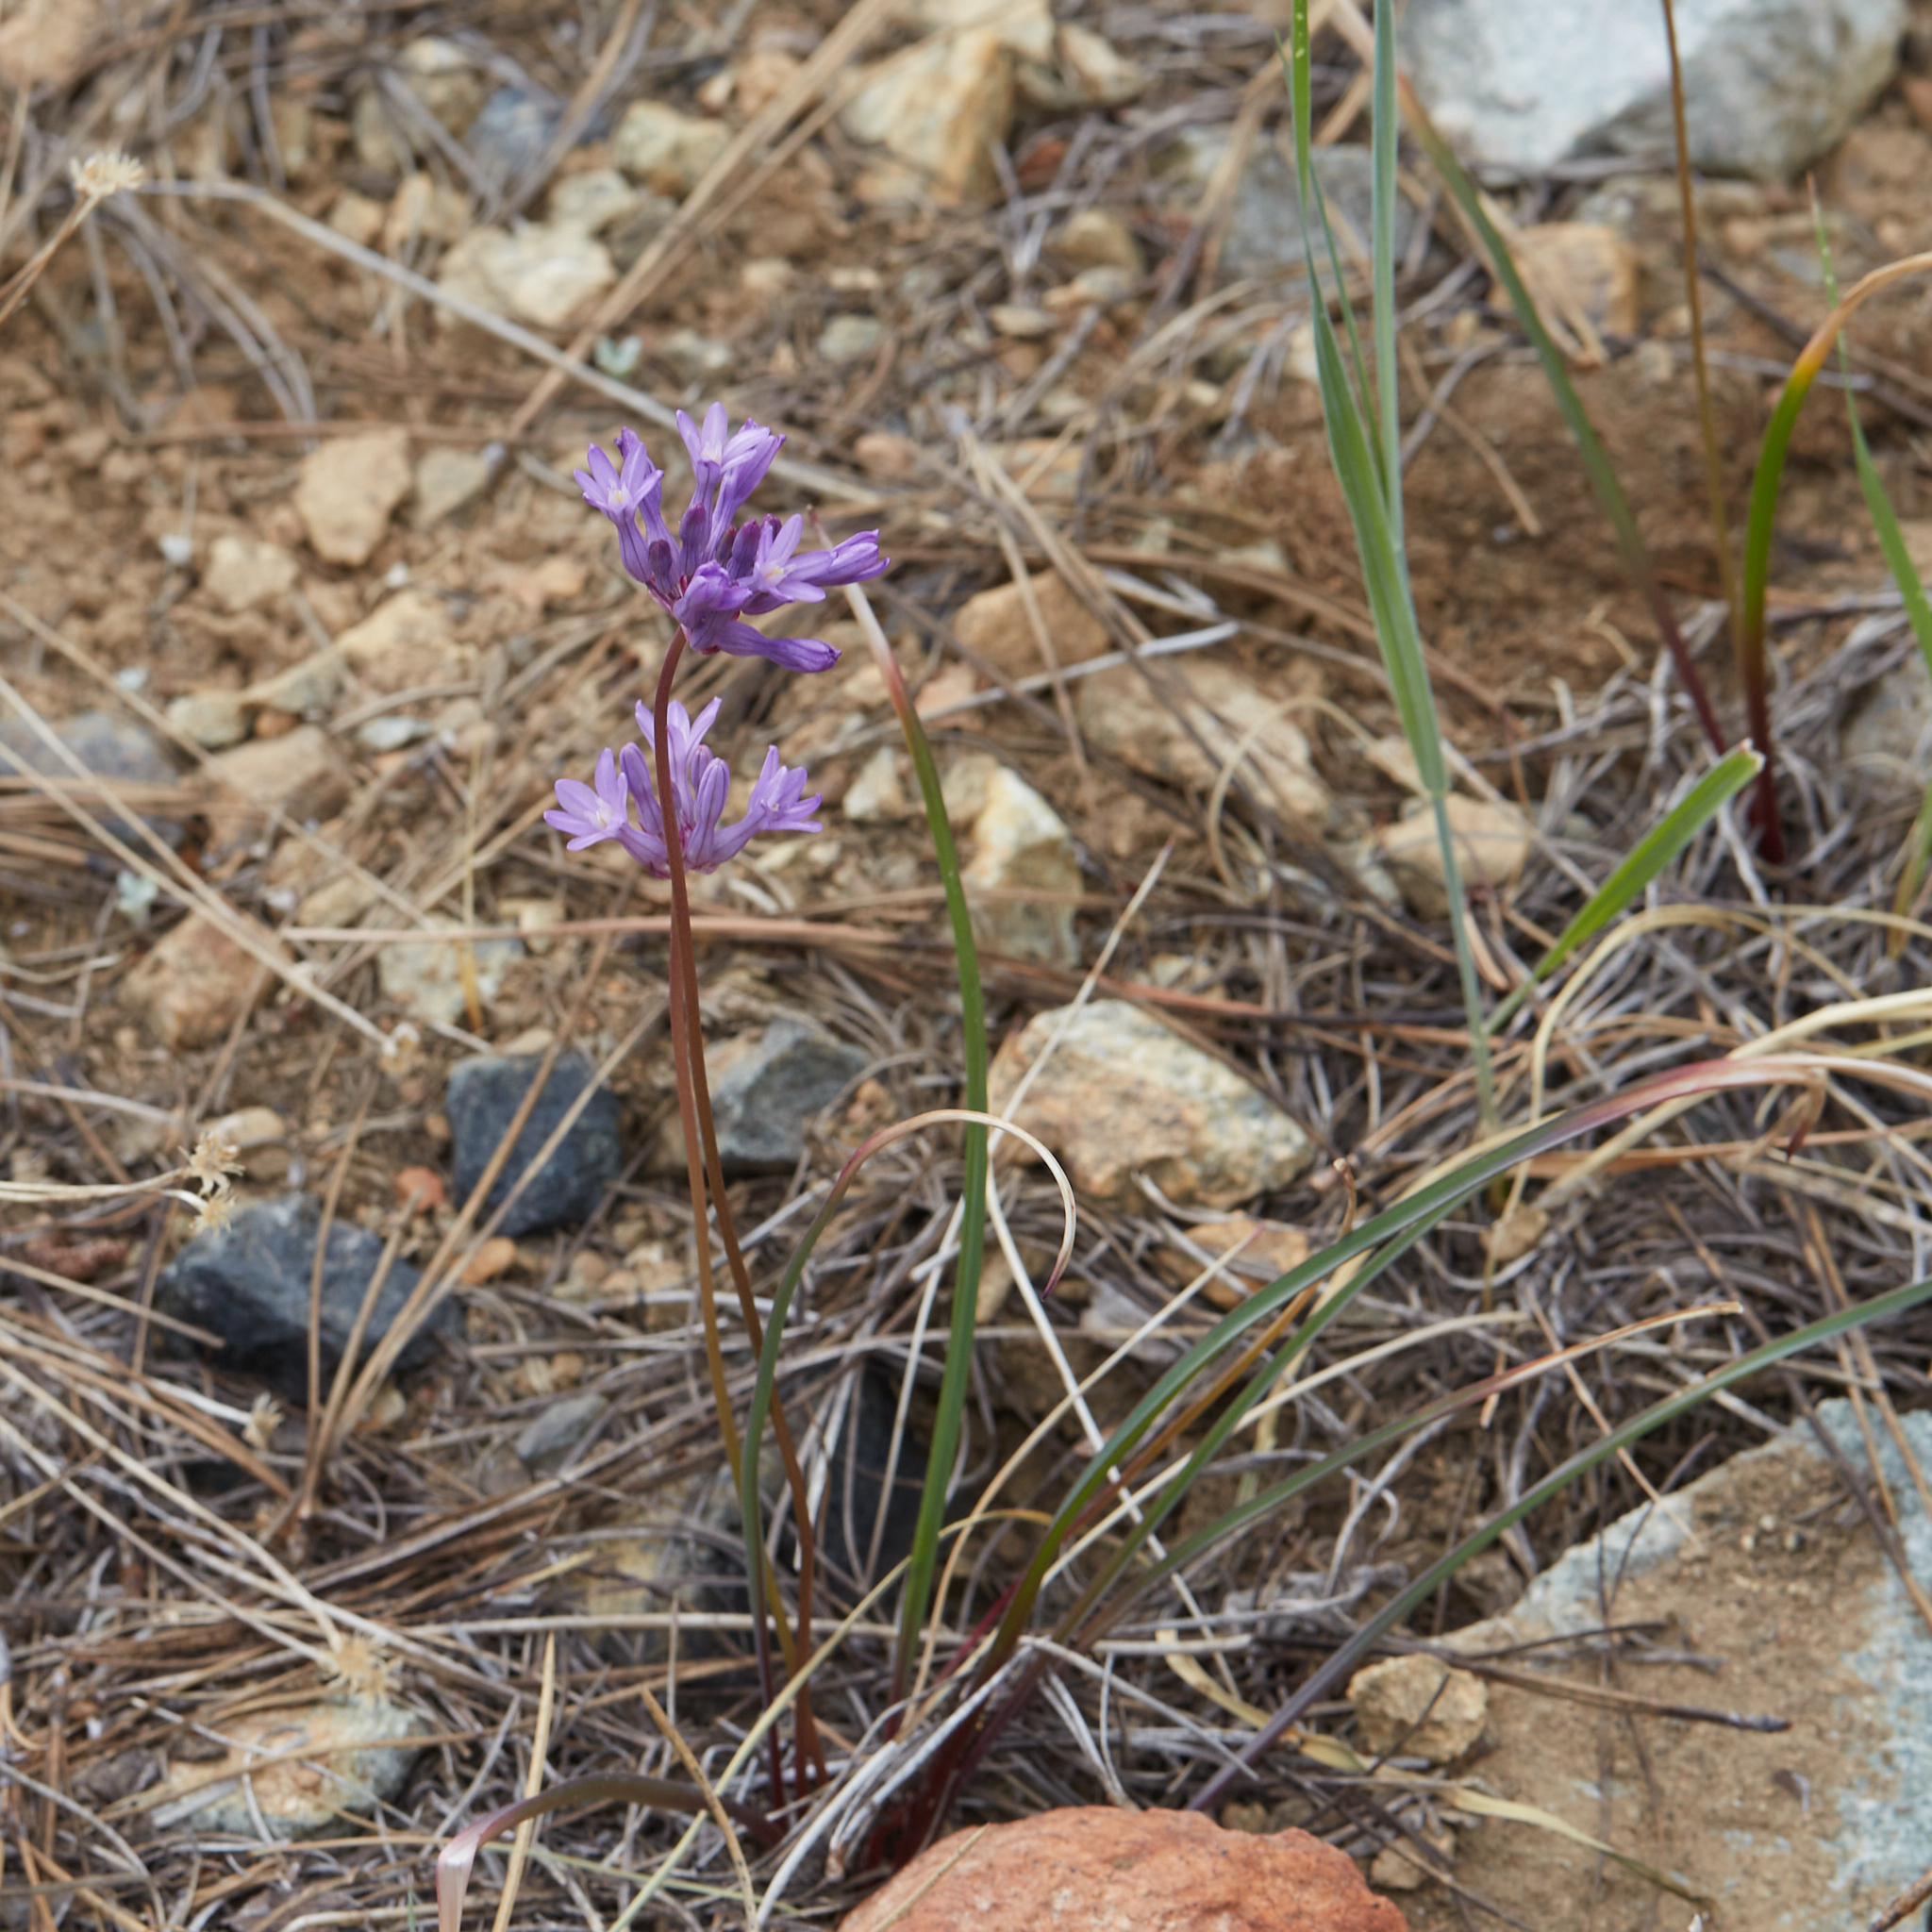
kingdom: Plantae
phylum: Tracheophyta
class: Liliopsida
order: Asparagales
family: Asparagaceae
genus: Dichelostemma
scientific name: Dichelostemma multiflorum
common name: Round-tooth ookow
